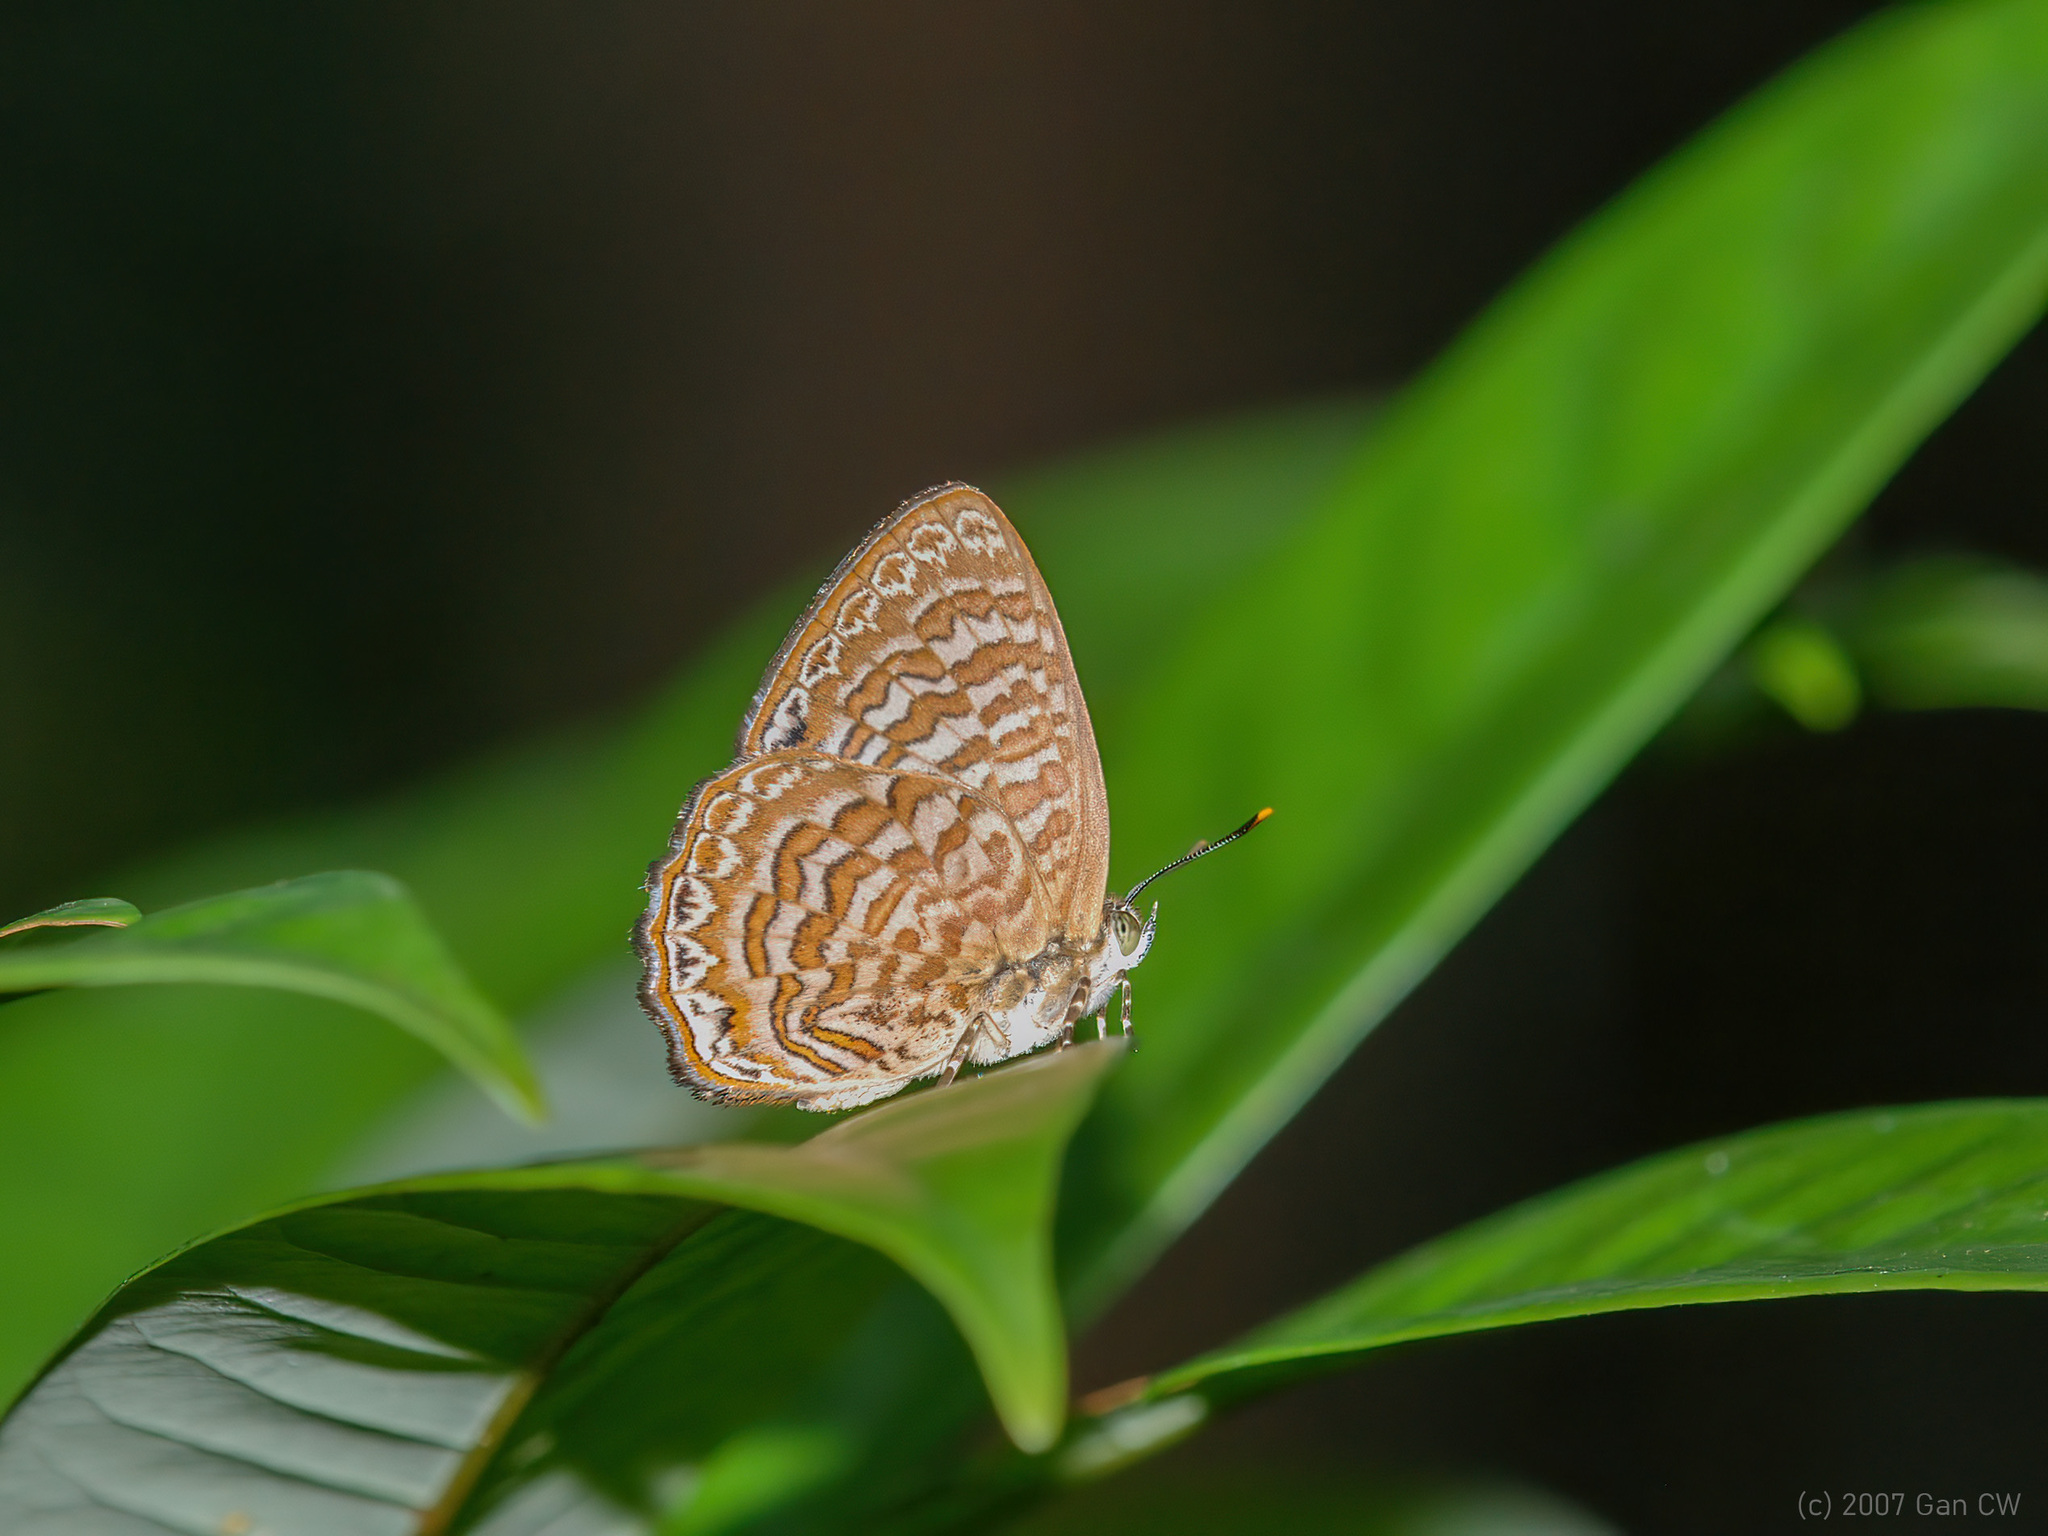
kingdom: Animalia
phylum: Arthropoda
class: Insecta
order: Lepidoptera
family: Lycaenidae
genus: Poritia
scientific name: Poritia sumatrae
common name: Sumatran gem
